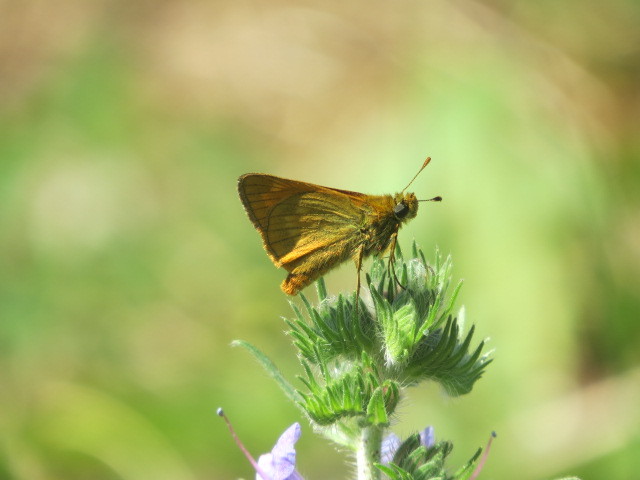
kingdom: Animalia
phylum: Arthropoda
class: Insecta
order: Lepidoptera
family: Hesperiidae
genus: Ochlodes
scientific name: Ochlodes venata
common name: Large skipper
